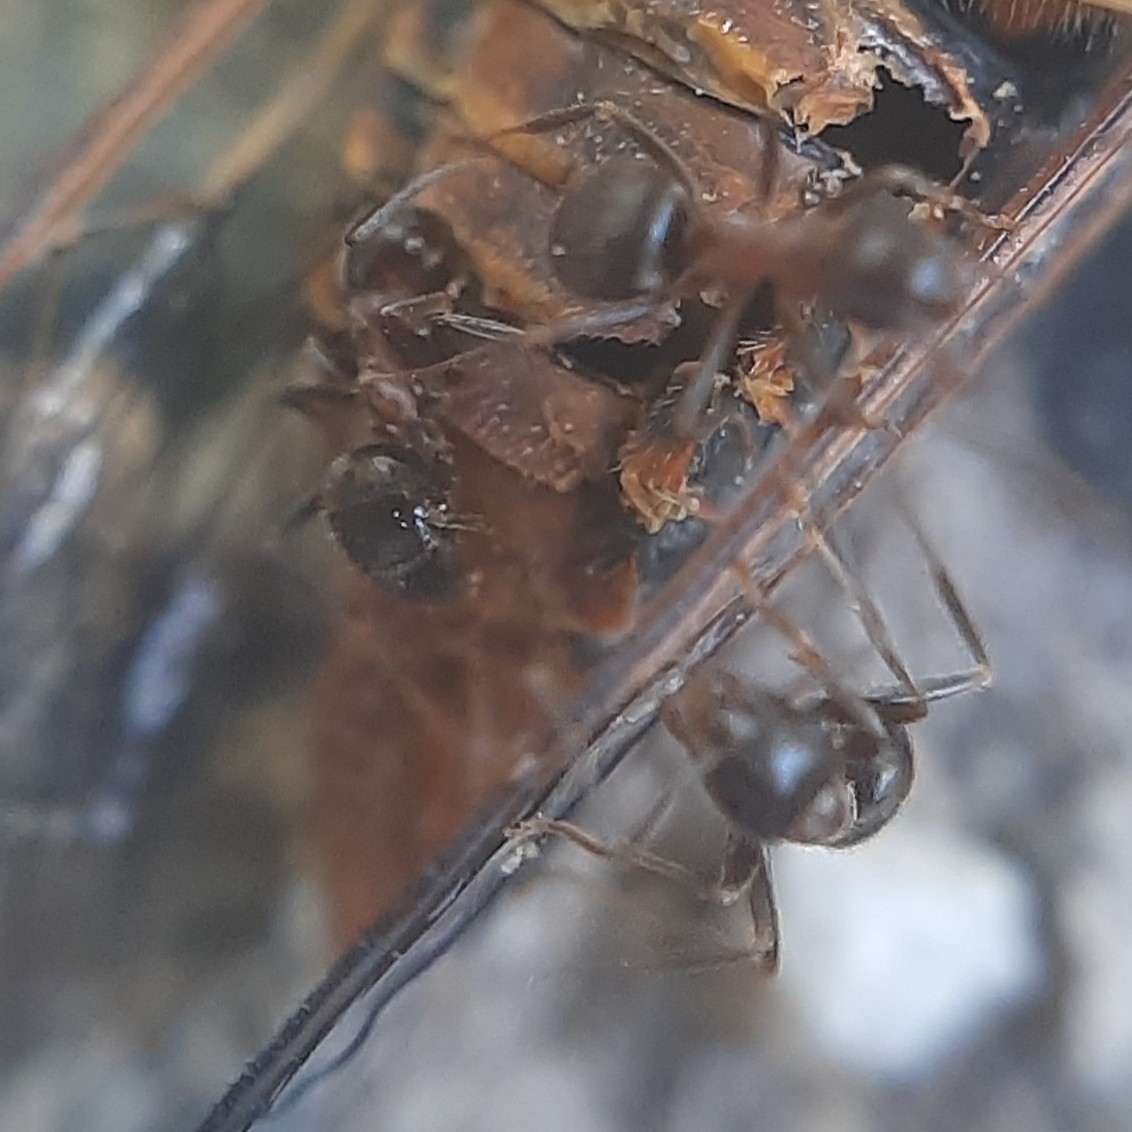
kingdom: Animalia
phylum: Arthropoda
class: Insecta
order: Hymenoptera
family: Formicidae
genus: Lasius
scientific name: Lasius emarginatus
